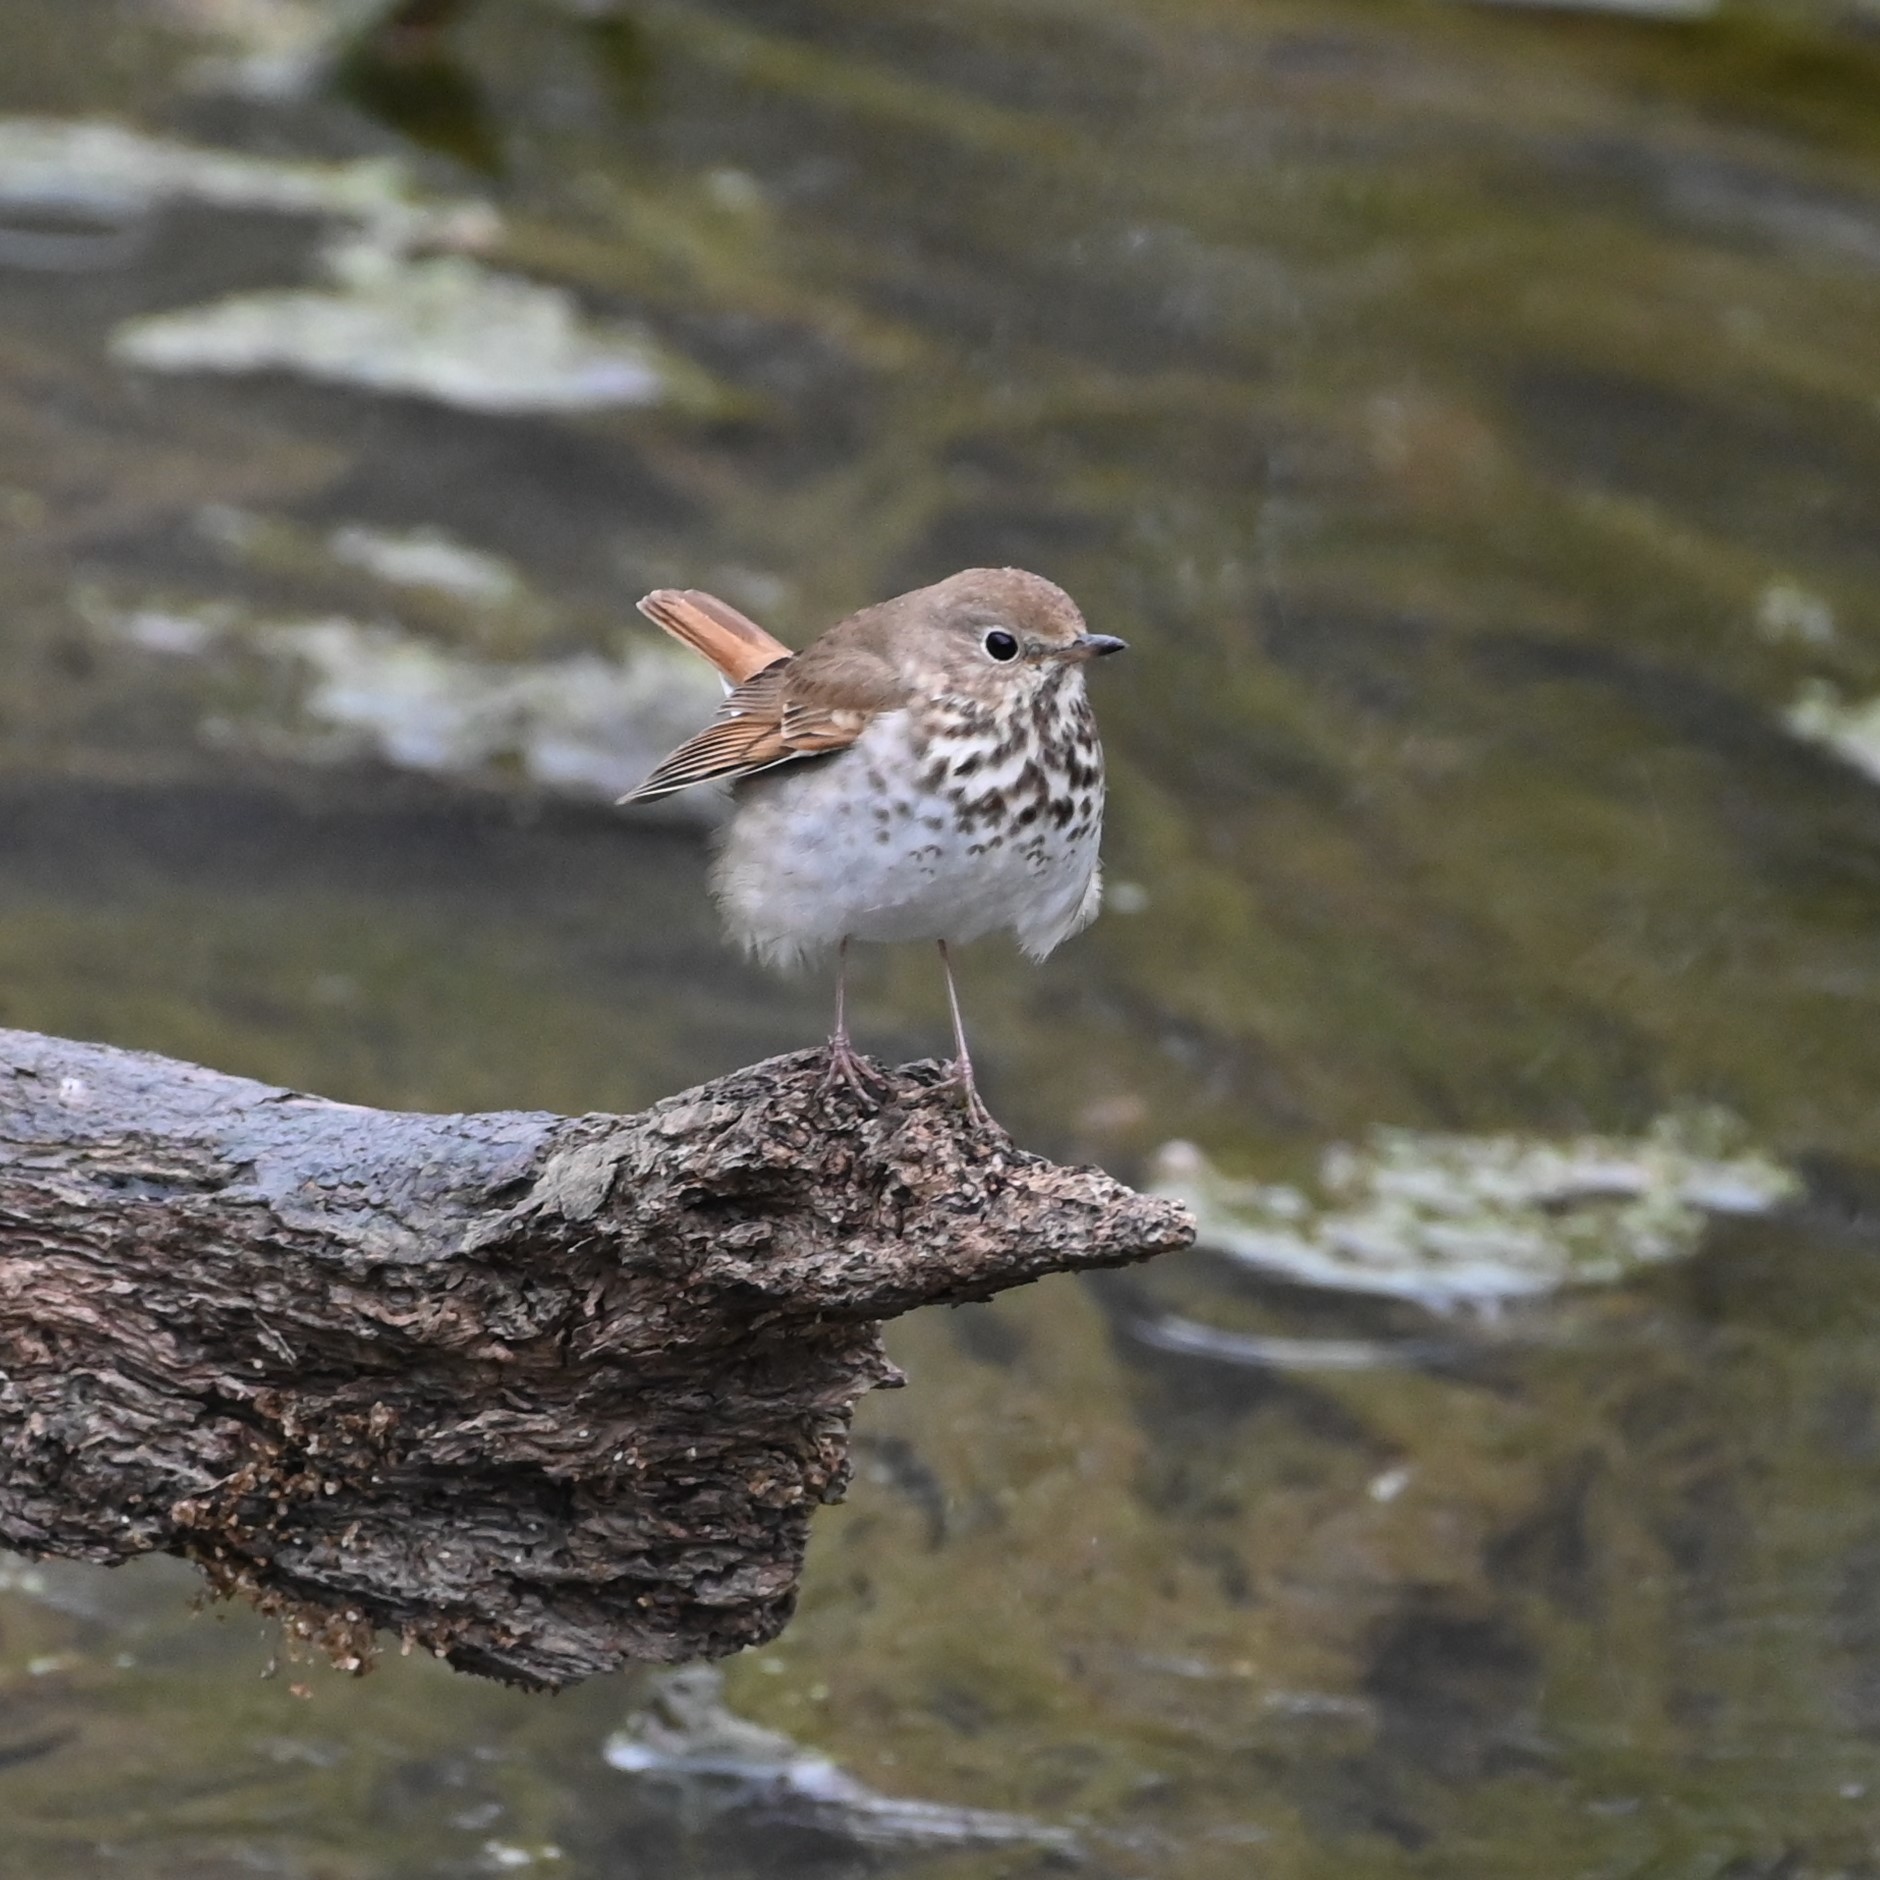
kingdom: Animalia
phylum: Chordata
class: Aves
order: Passeriformes
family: Turdidae
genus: Catharus
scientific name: Catharus guttatus
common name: Hermit thrush
